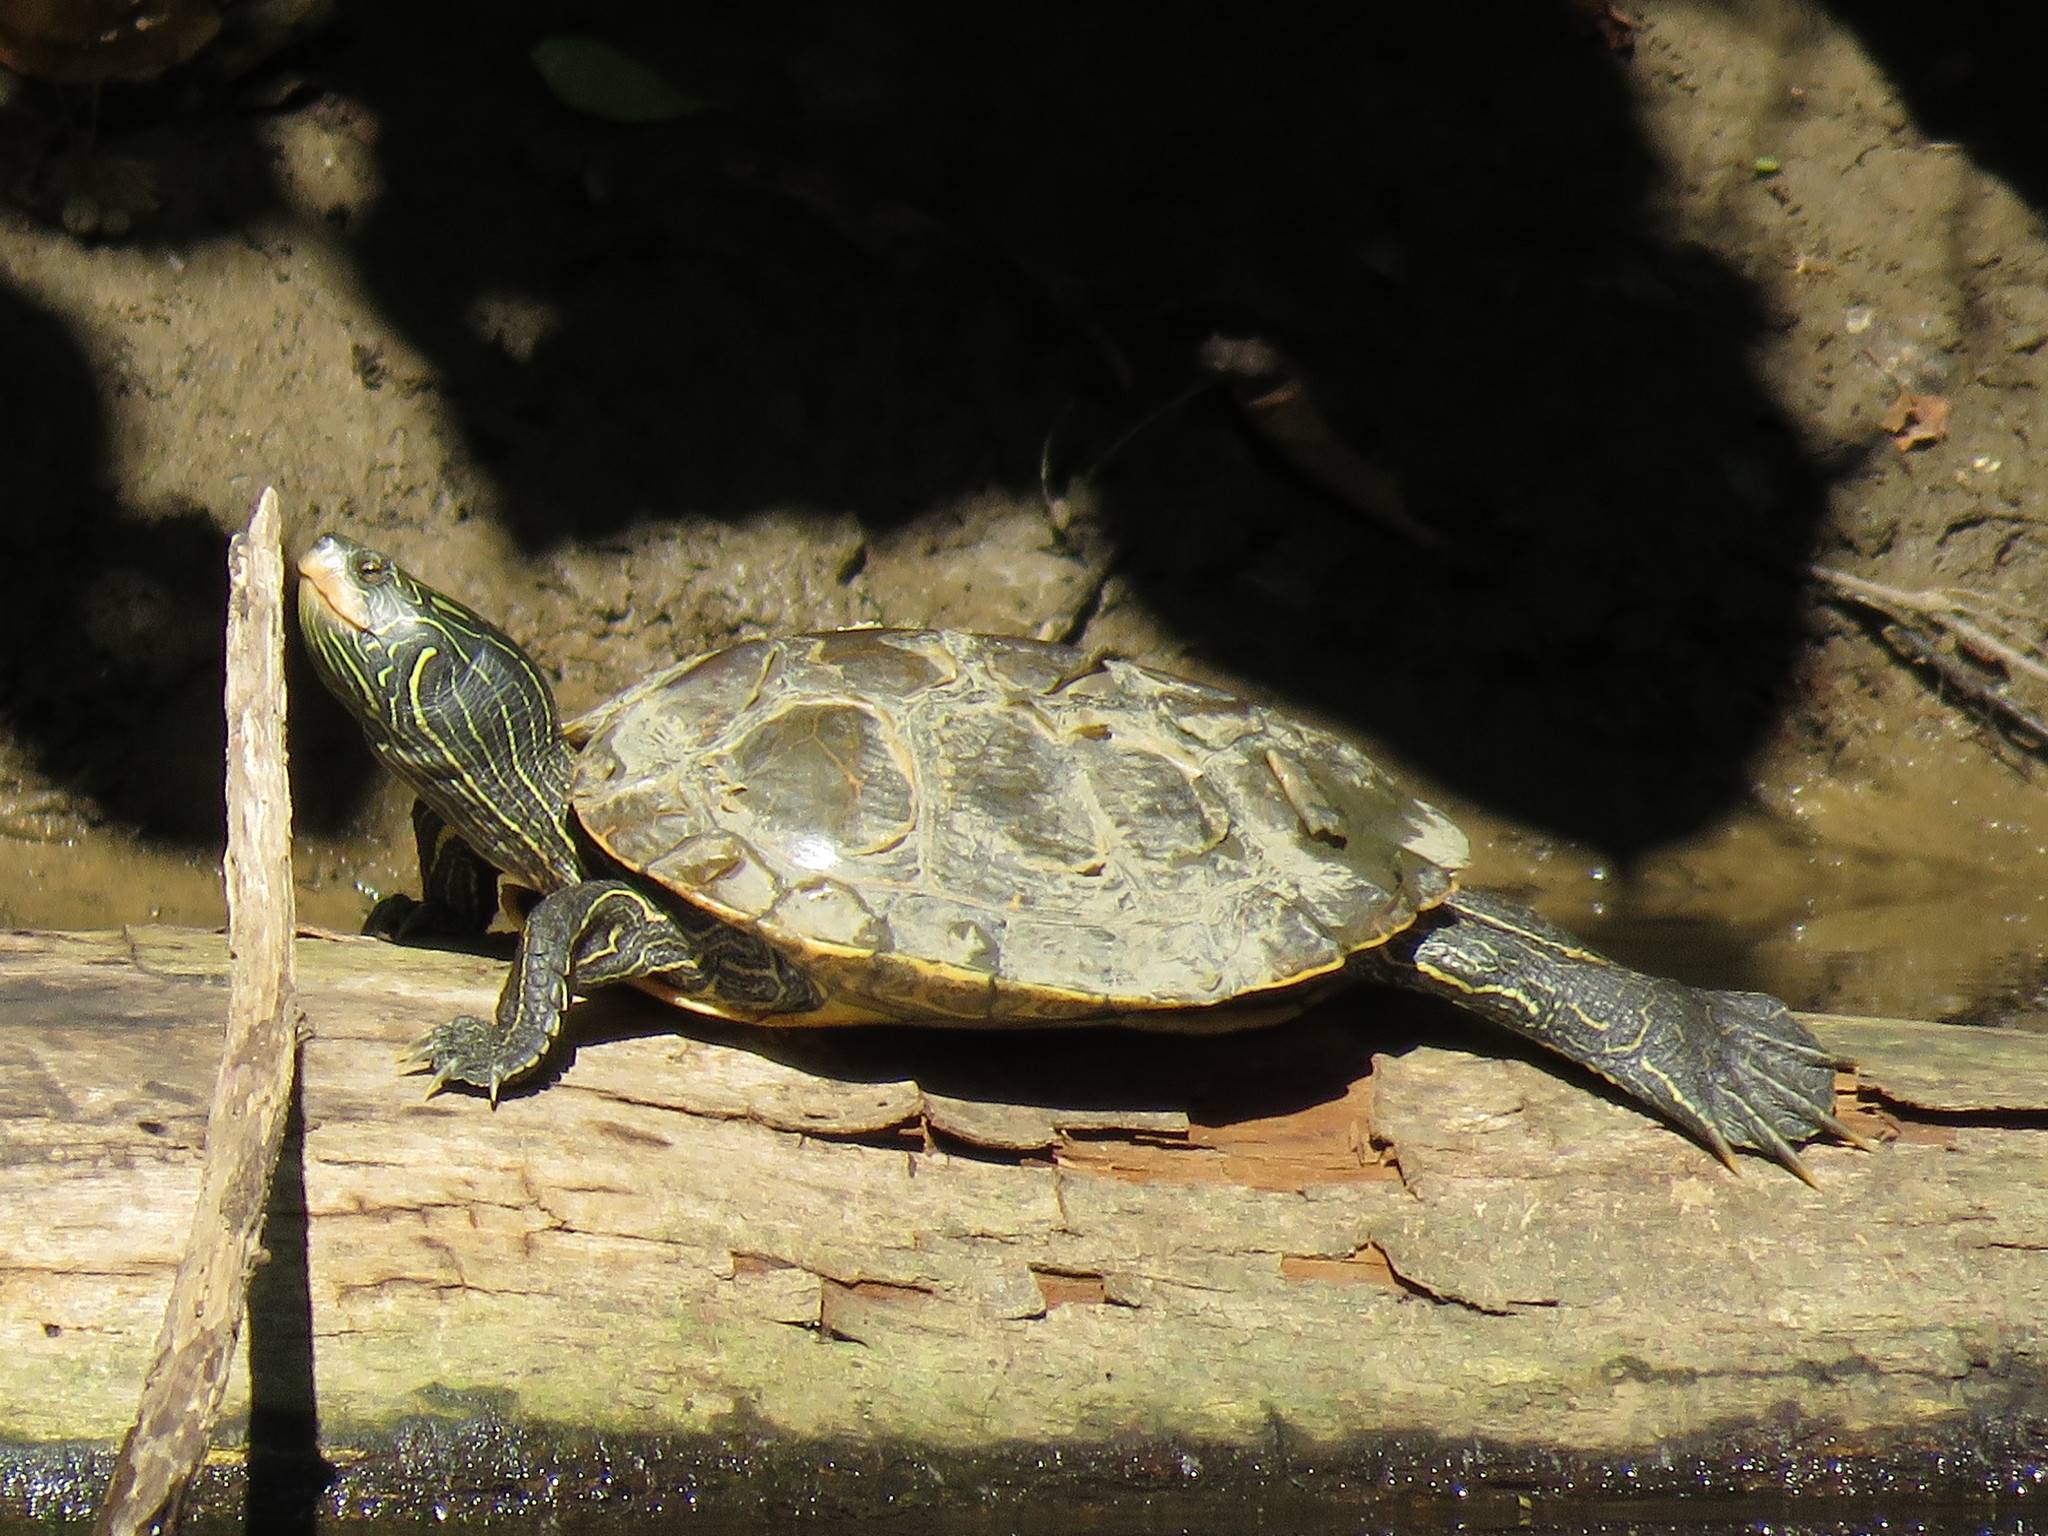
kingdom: Animalia
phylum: Chordata
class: Testudines
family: Emydidae
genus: Graptemys
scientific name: Graptemys geographica
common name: Common map turtle
